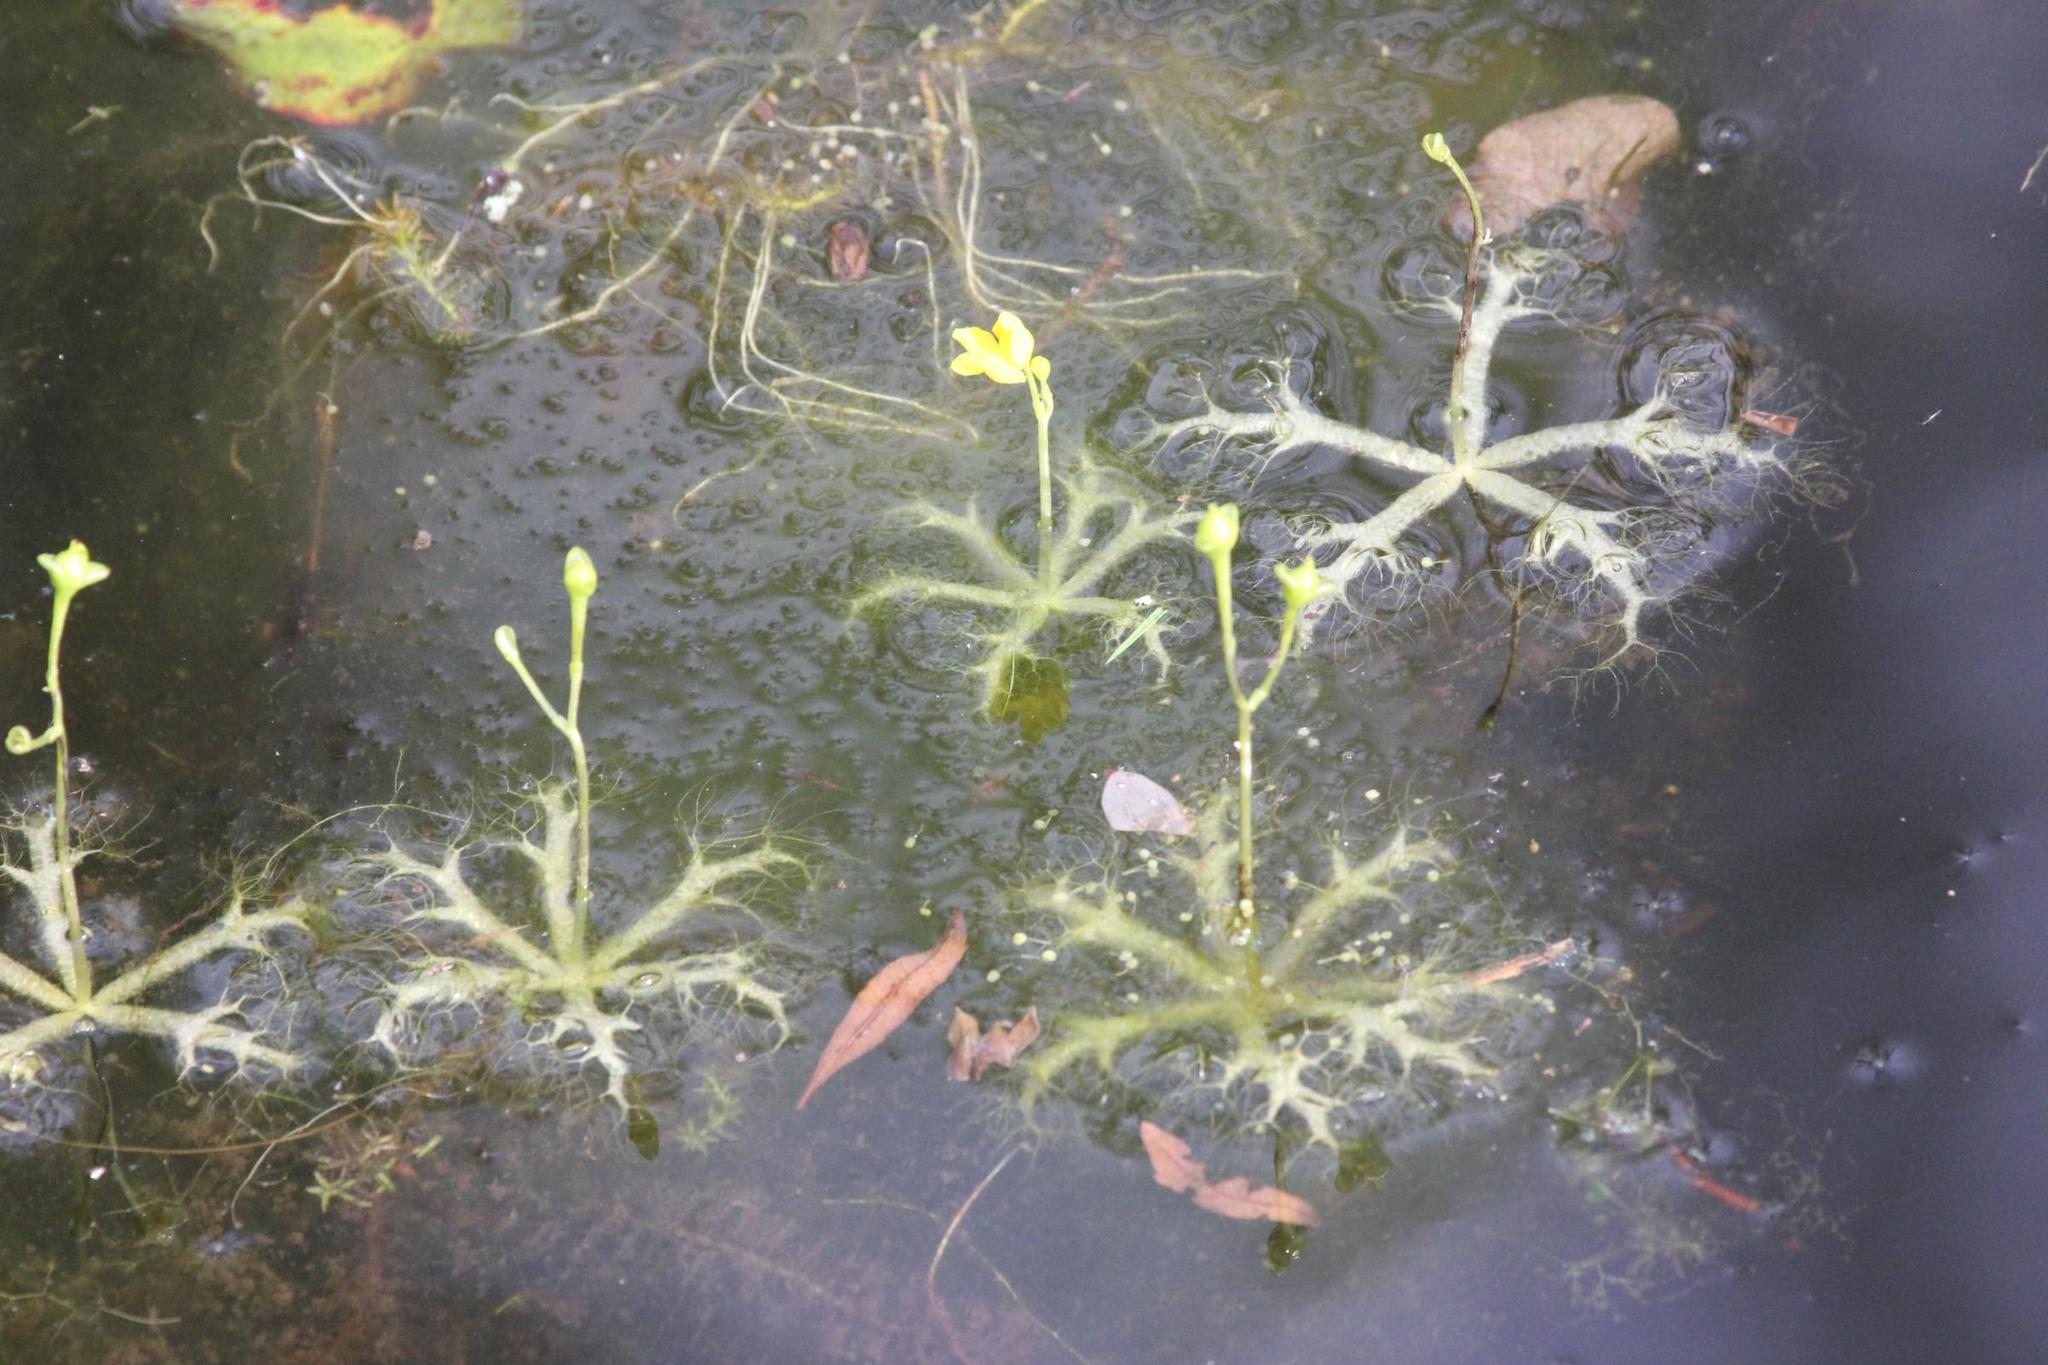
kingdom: Plantae
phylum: Tracheophyta
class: Magnoliopsida
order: Lamiales
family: Lentibulariaceae
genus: Utricularia
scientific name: Utricularia radiata
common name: Floating bladderwort
